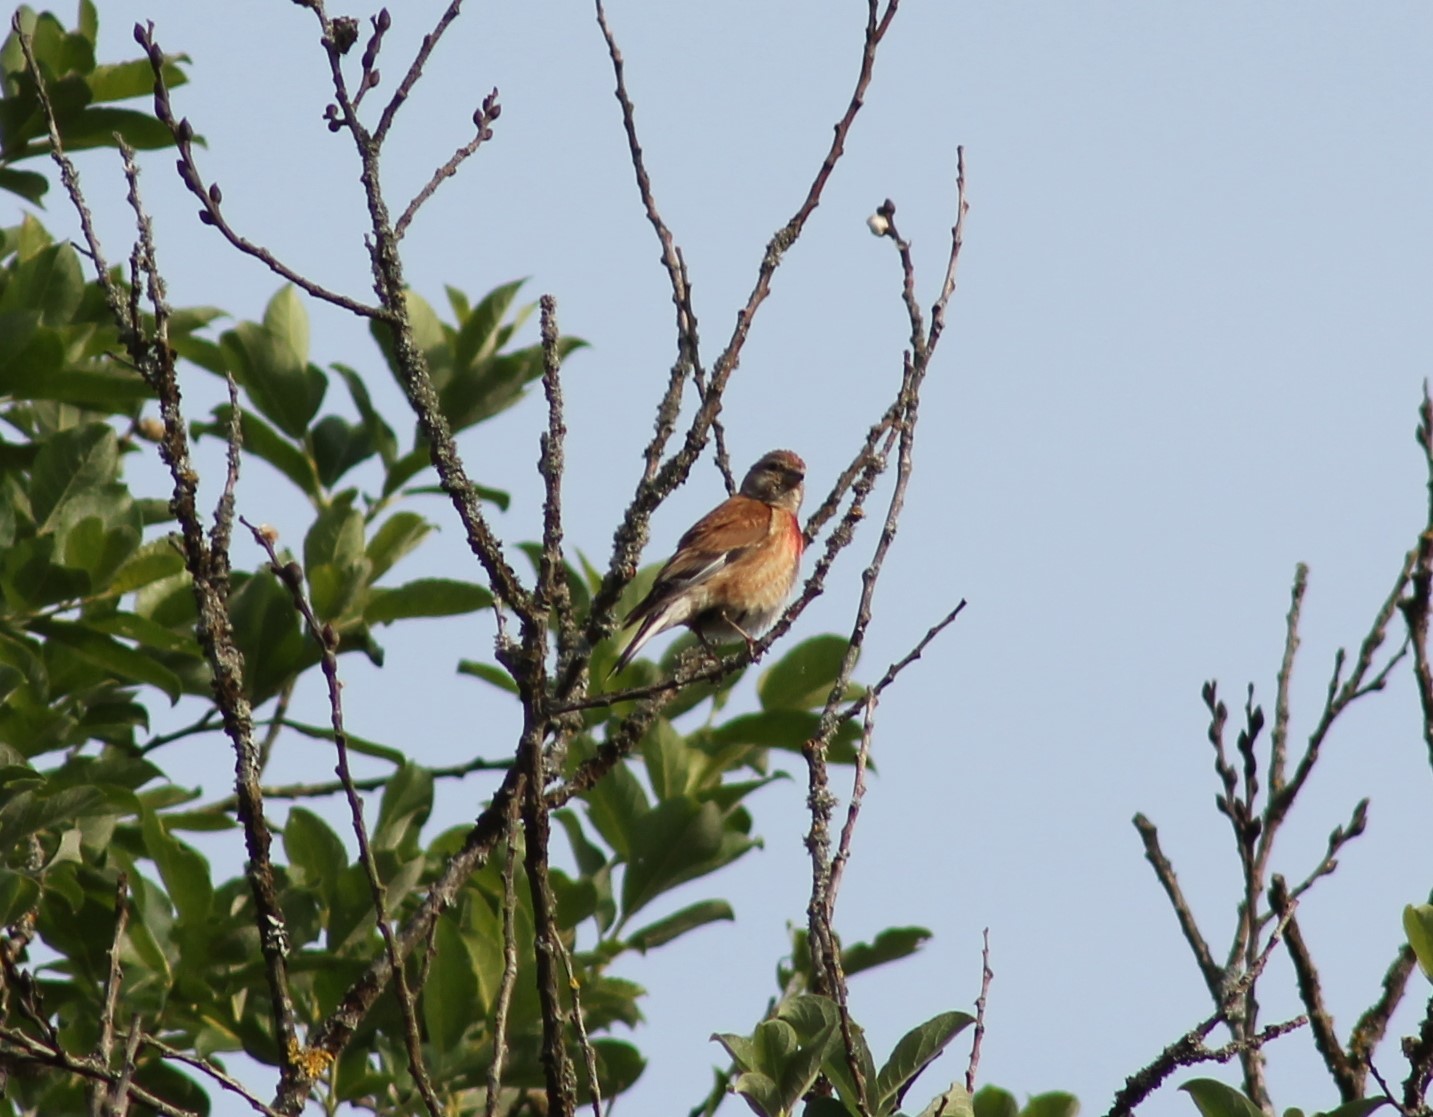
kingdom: Animalia
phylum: Chordata
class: Aves
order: Passeriformes
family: Fringillidae
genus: Linaria
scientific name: Linaria cannabina
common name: Common linnet
